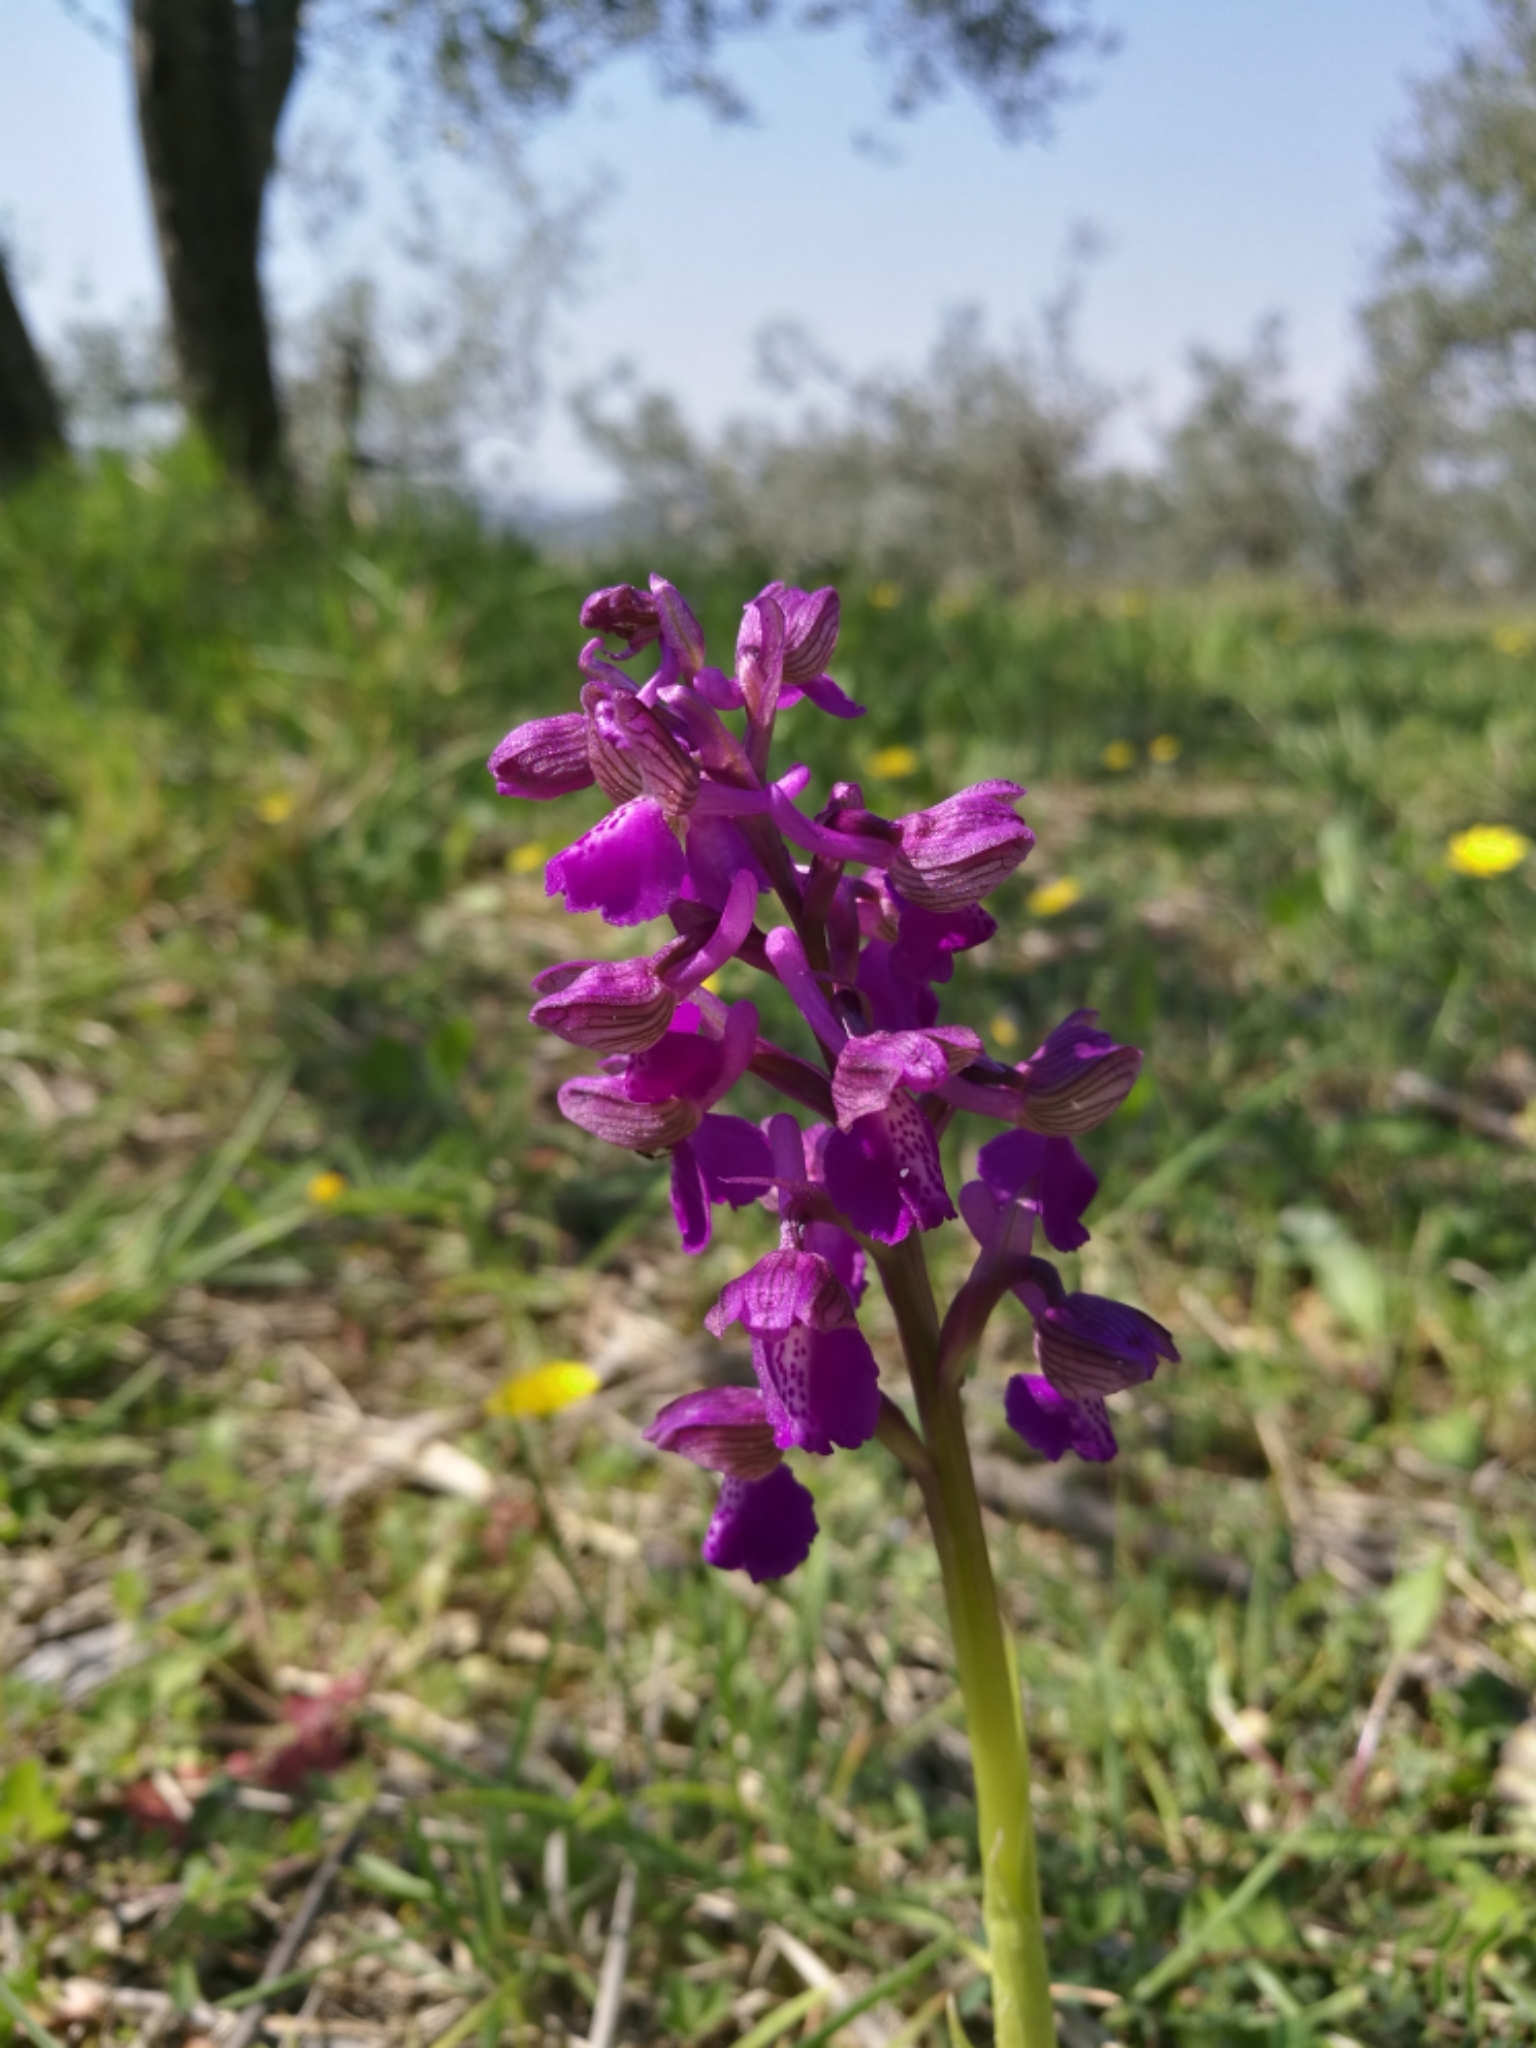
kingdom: Plantae
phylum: Tracheophyta
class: Liliopsida
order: Asparagales
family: Orchidaceae
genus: Anacamptis
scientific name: Anacamptis morio
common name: Green-winged orchid
